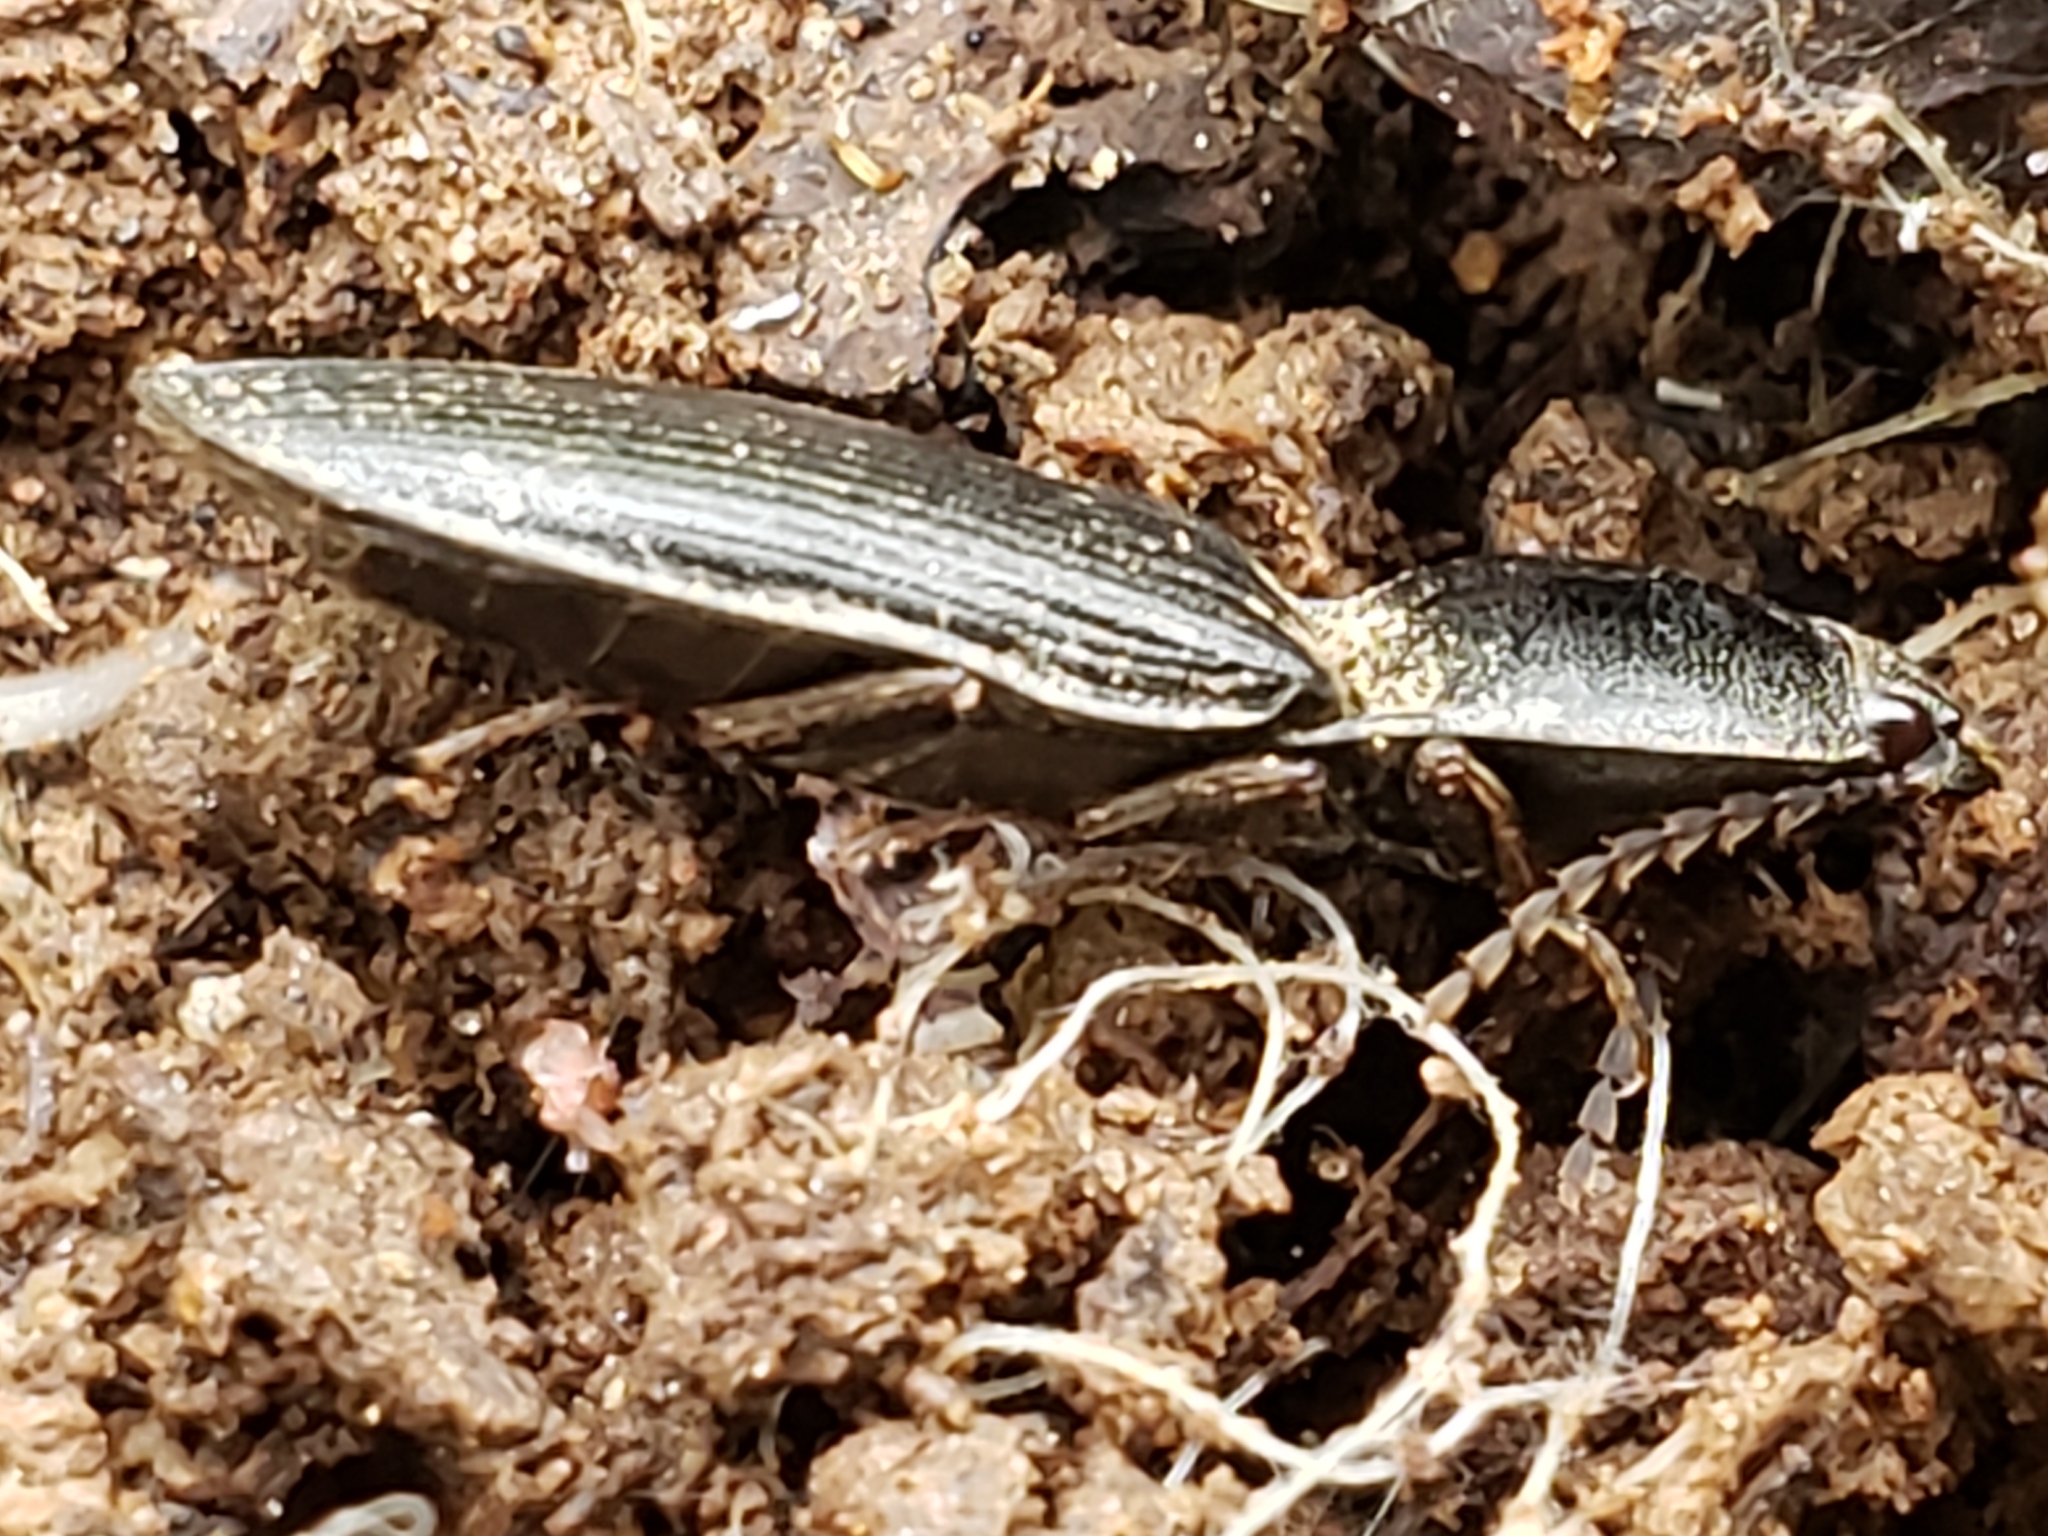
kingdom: Animalia
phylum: Arthropoda
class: Insecta
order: Coleoptera
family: Elateridae
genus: Neopristilophus
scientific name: Neopristilophus
